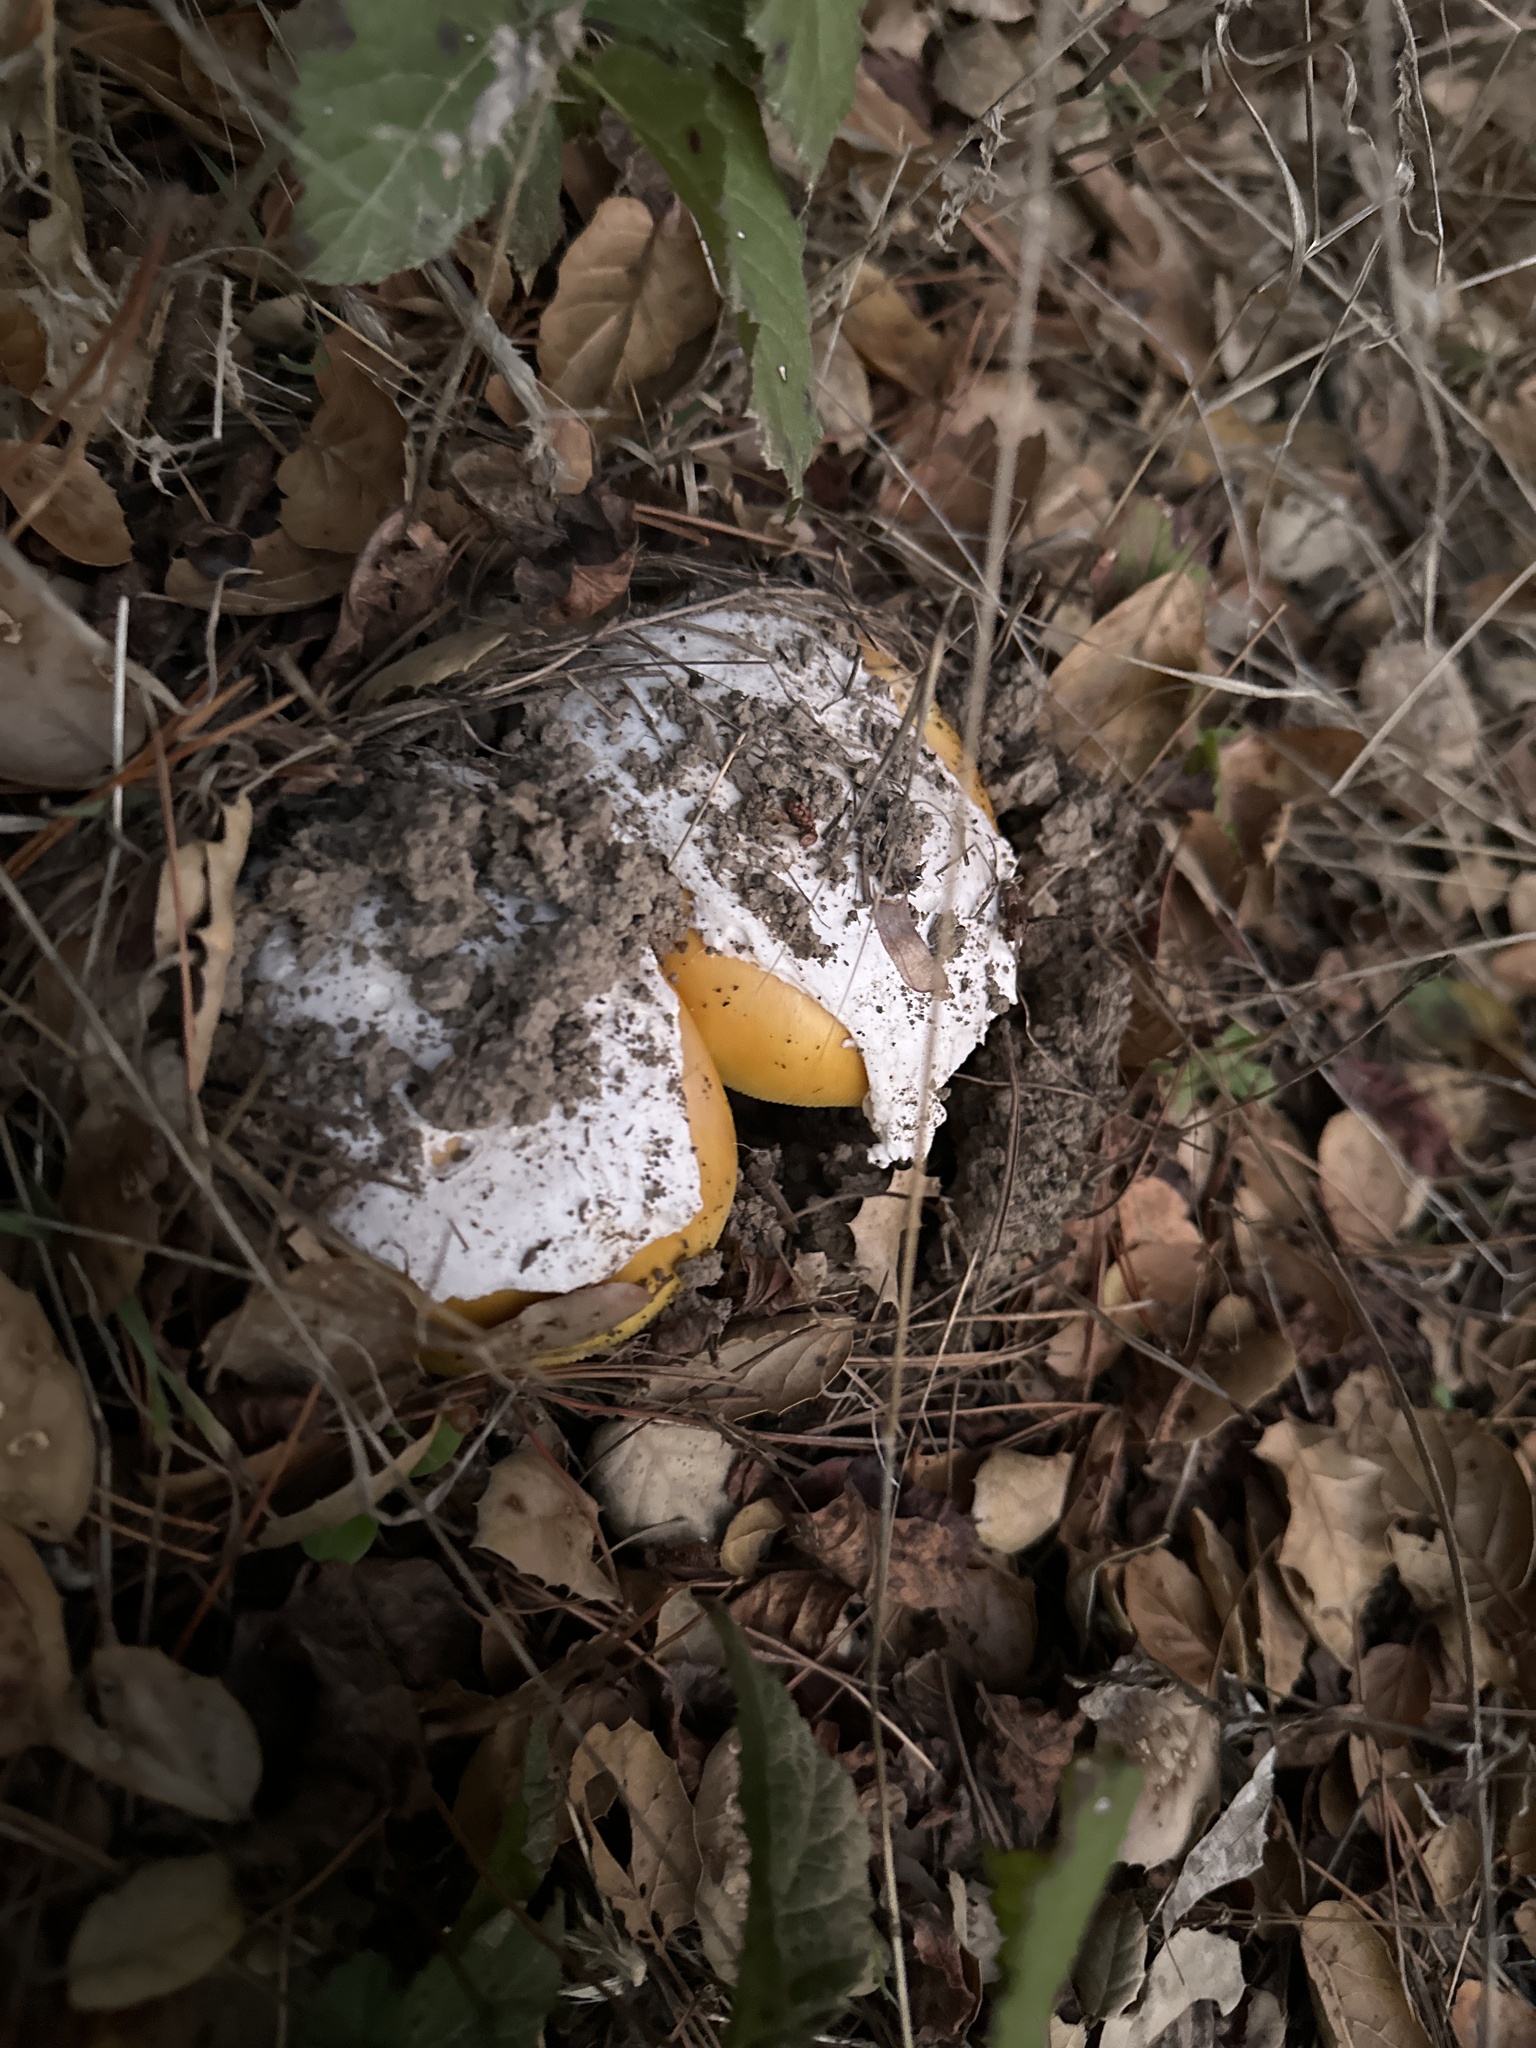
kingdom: Fungi
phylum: Basidiomycota
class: Agaricomycetes
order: Agaricales
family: Amanitaceae
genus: Amanita
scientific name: Amanita calyptroderma
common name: Coccora
